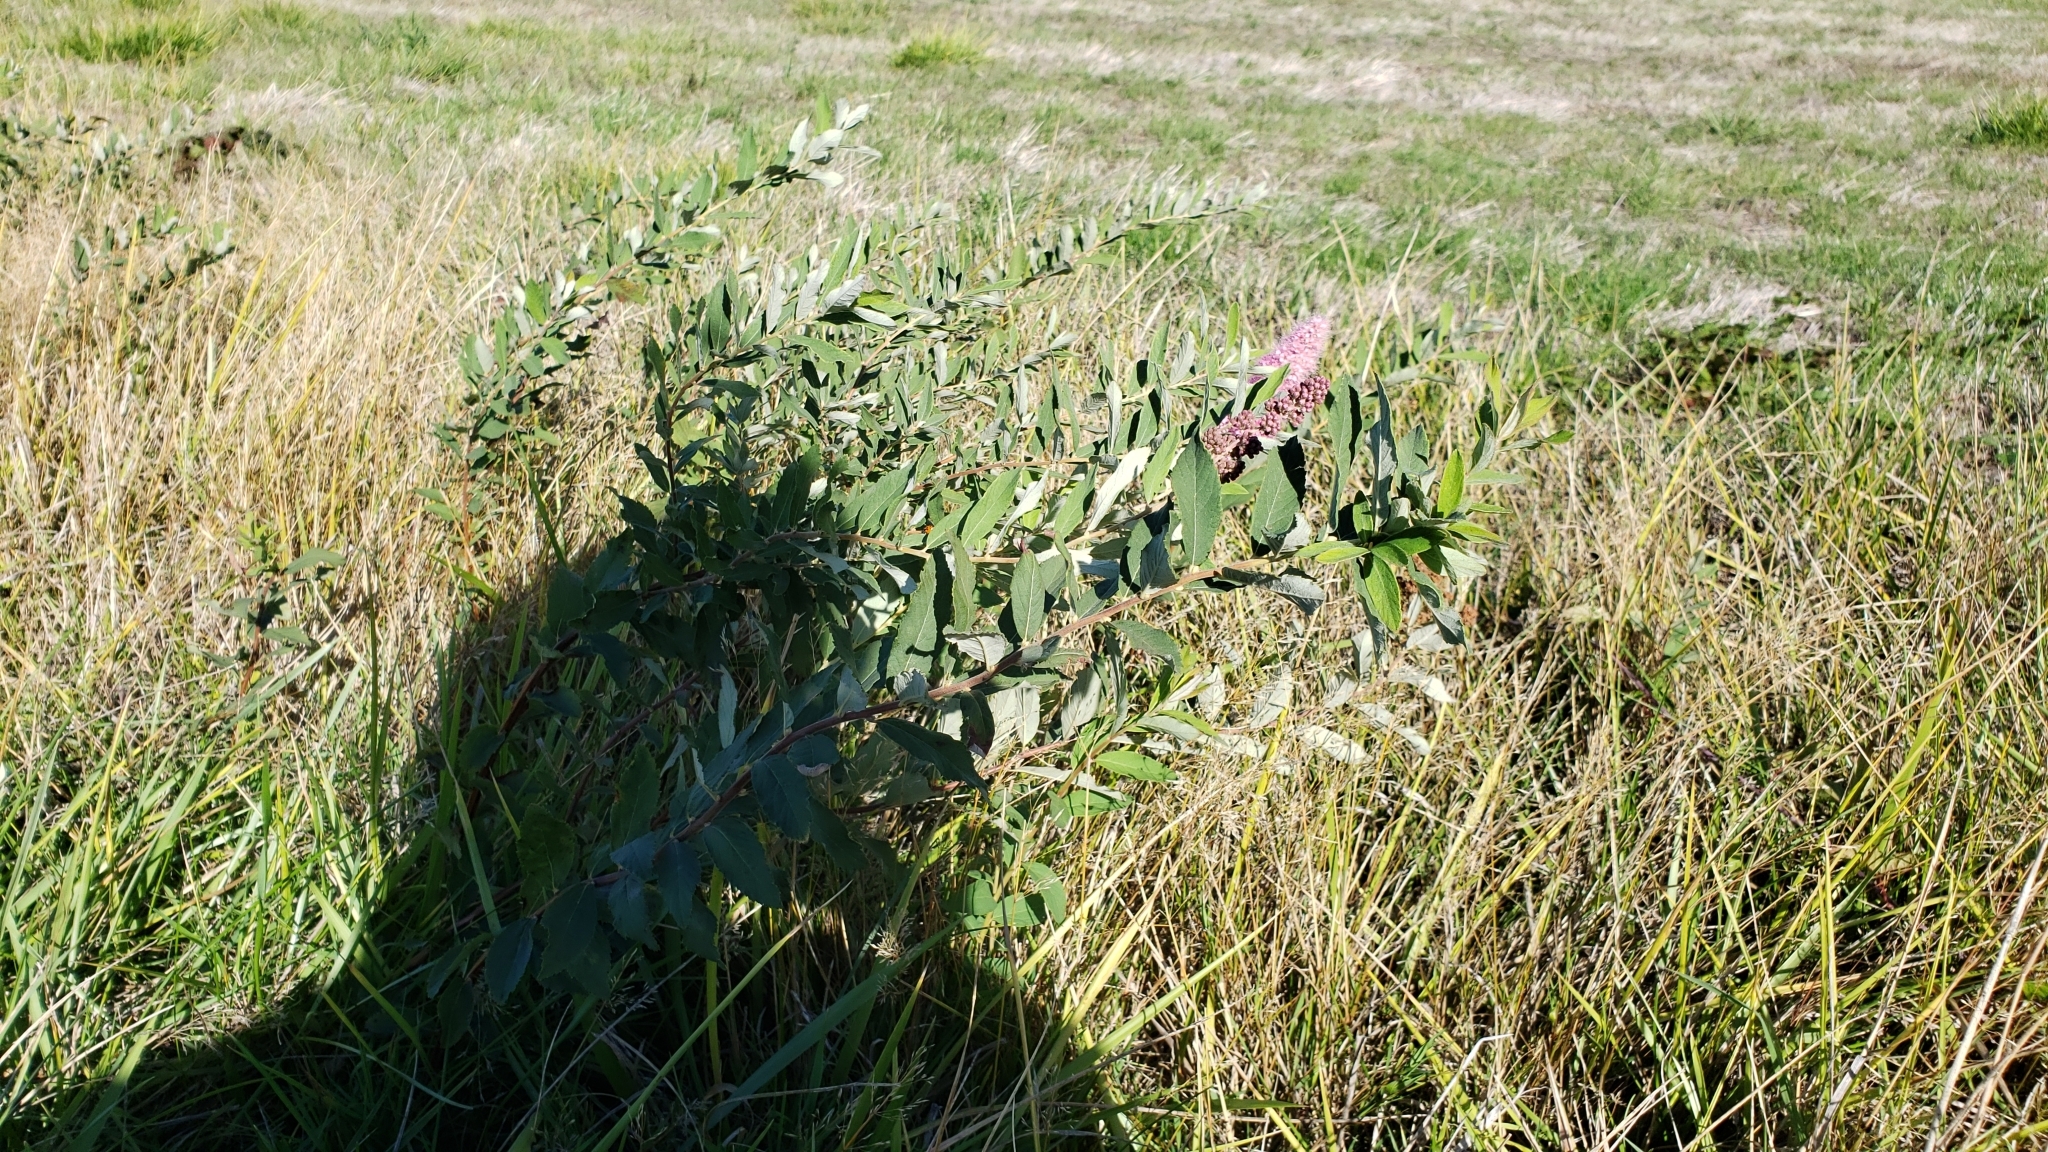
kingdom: Plantae
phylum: Tracheophyta
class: Magnoliopsida
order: Rosales
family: Rosaceae
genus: Spiraea
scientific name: Spiraea douglasii
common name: Steeplebush
